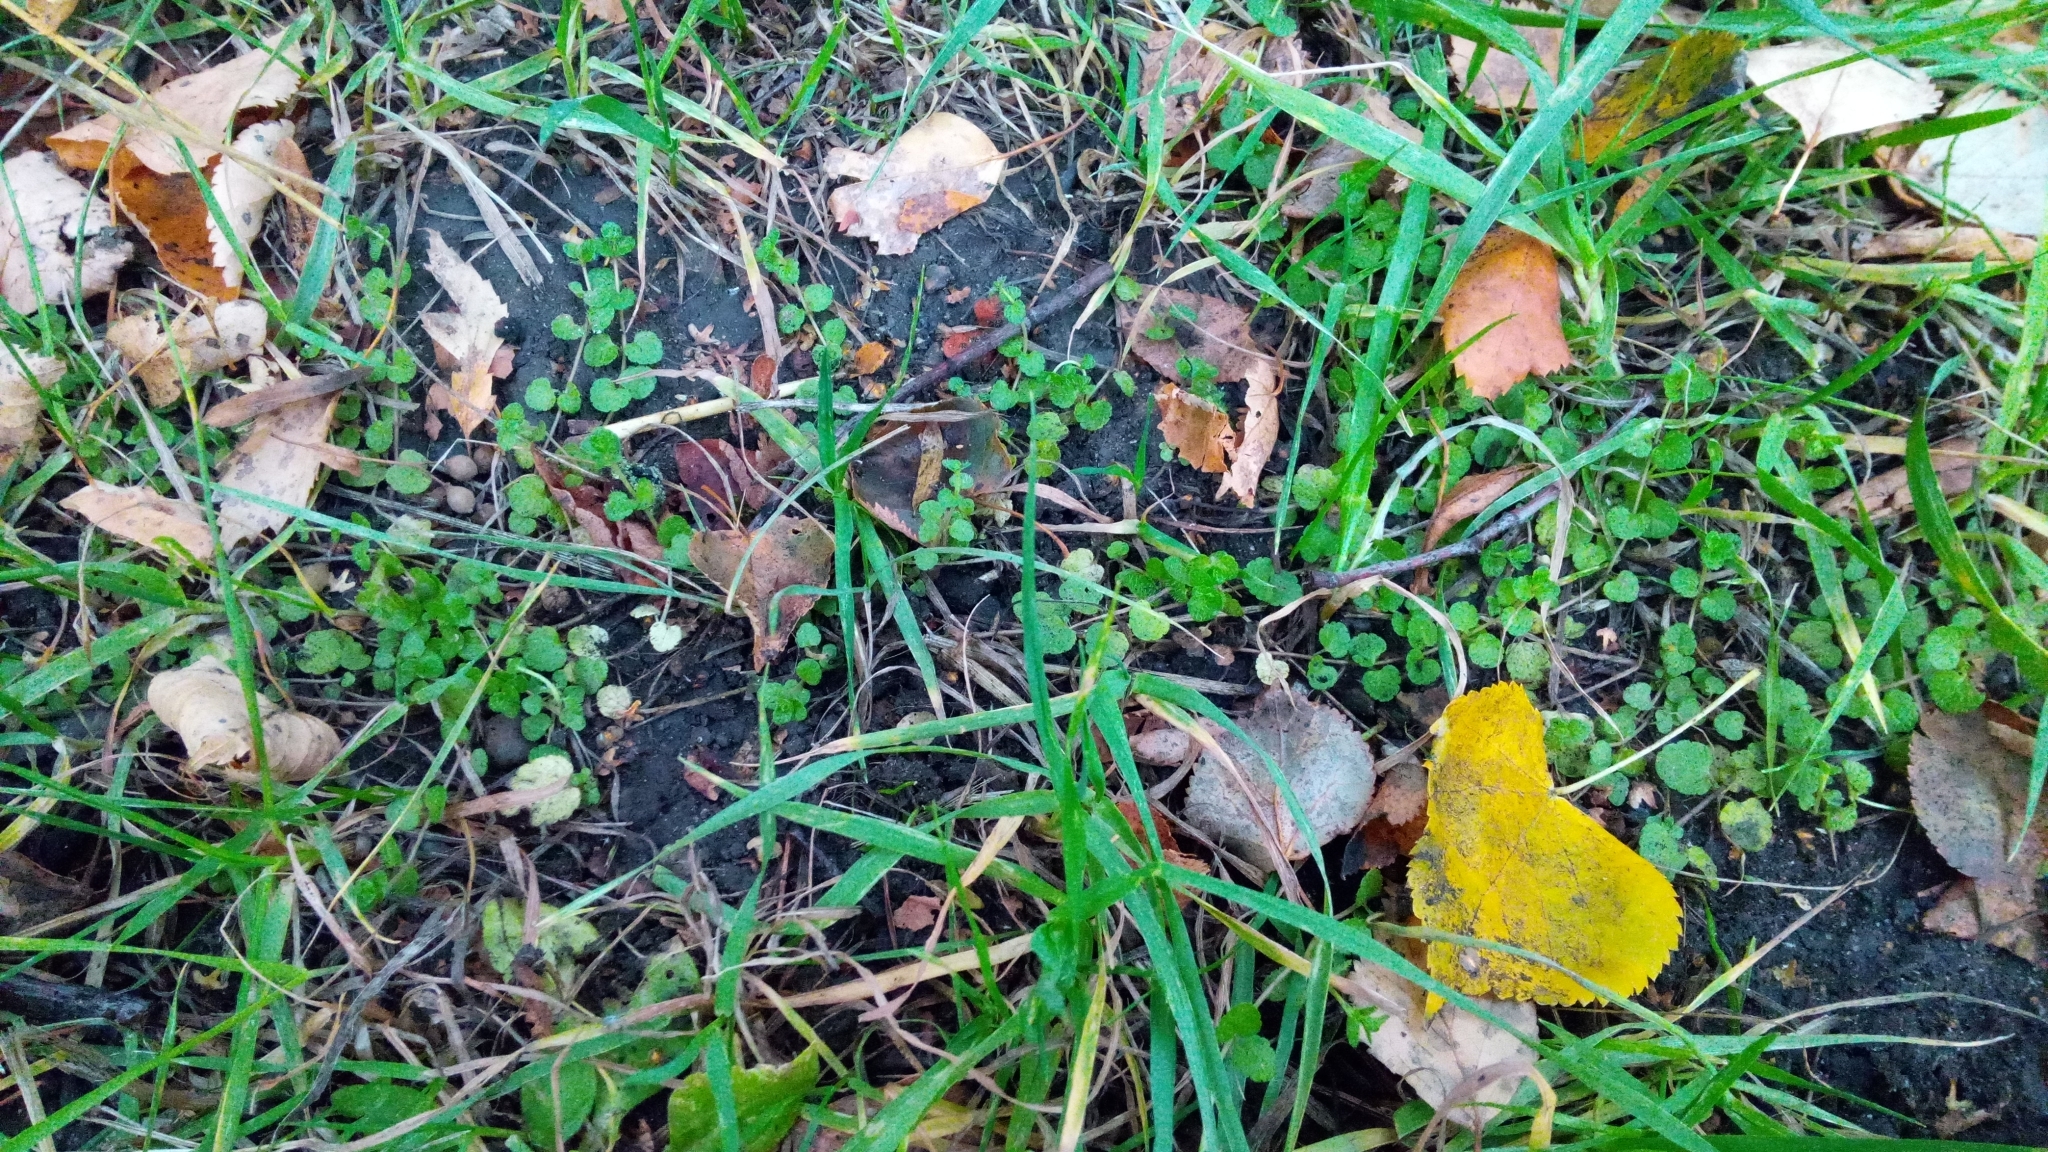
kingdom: Plantae
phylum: Tracheophyta
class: Magnoliopsida
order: Lamiales
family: Plantaginaceae
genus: Veronica
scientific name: Veronica filiformis
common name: Slender speedwell
